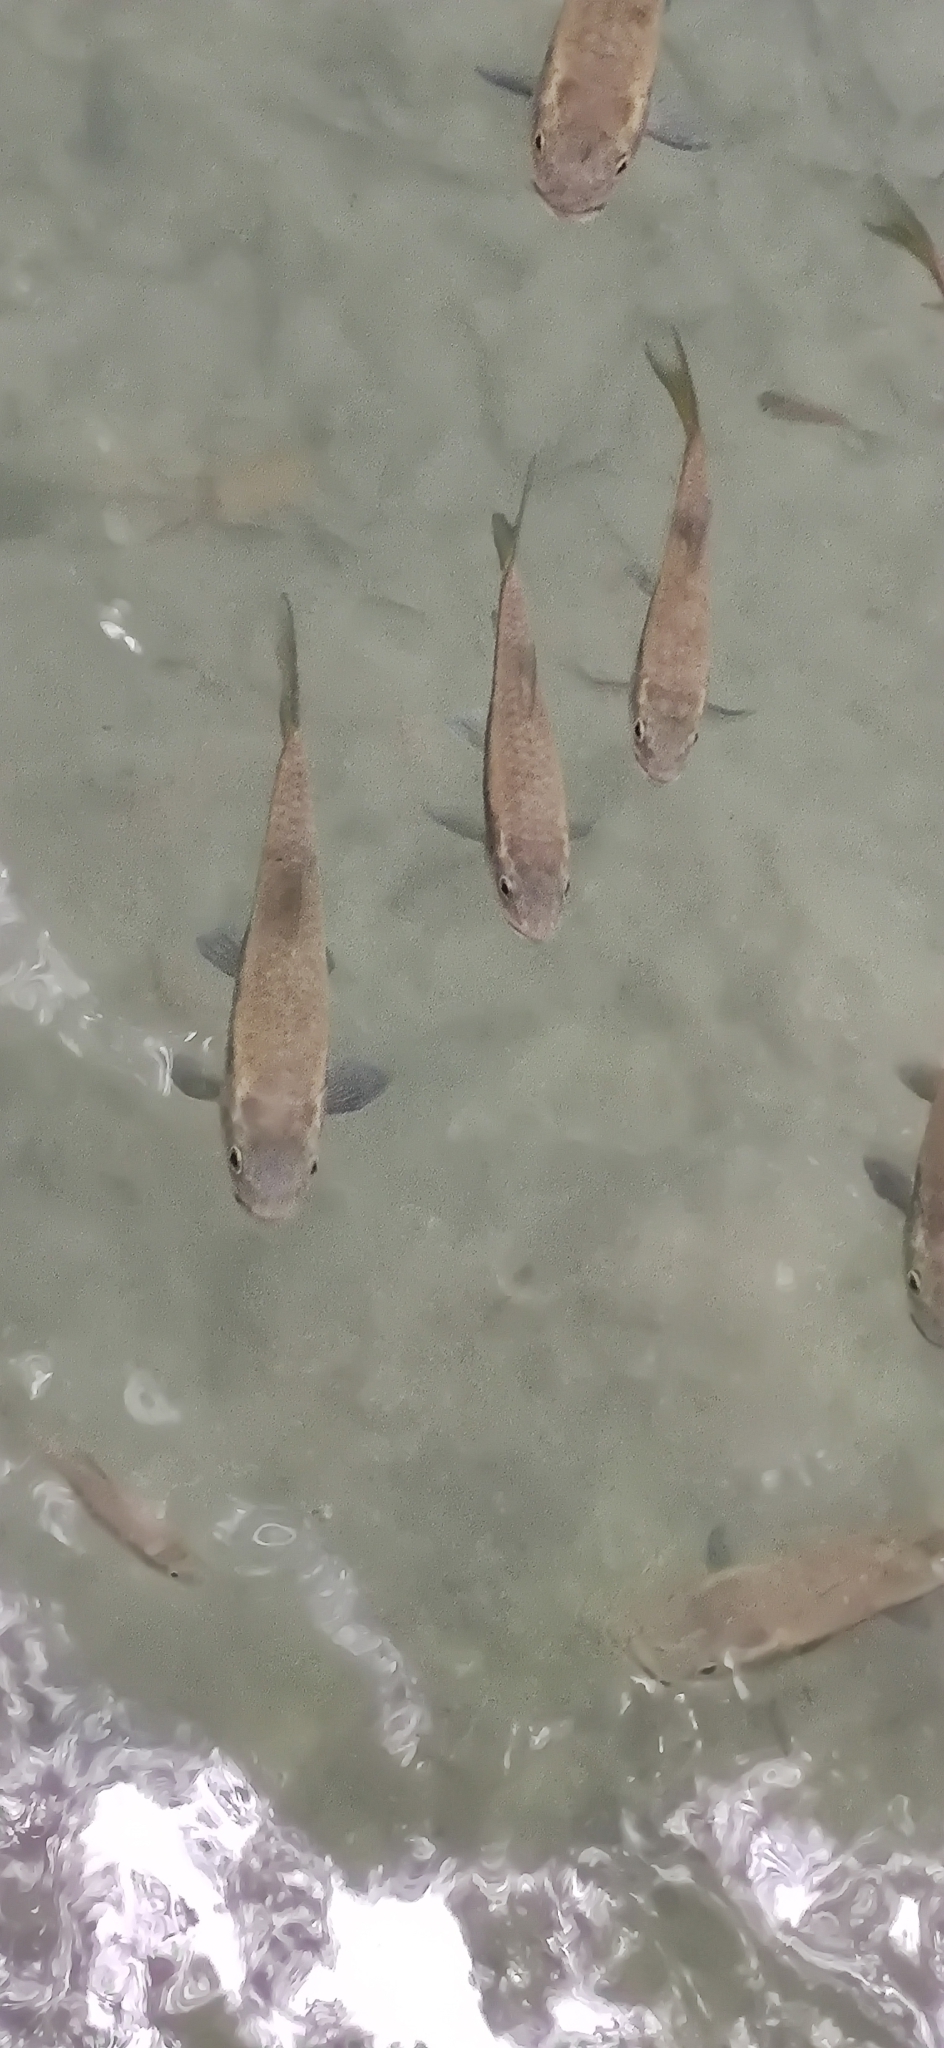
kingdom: Animalia
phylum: Chordata
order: Cypriniformes
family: Cyprinidae
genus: Neolissochilus
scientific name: Neolissochilus stracheyi
